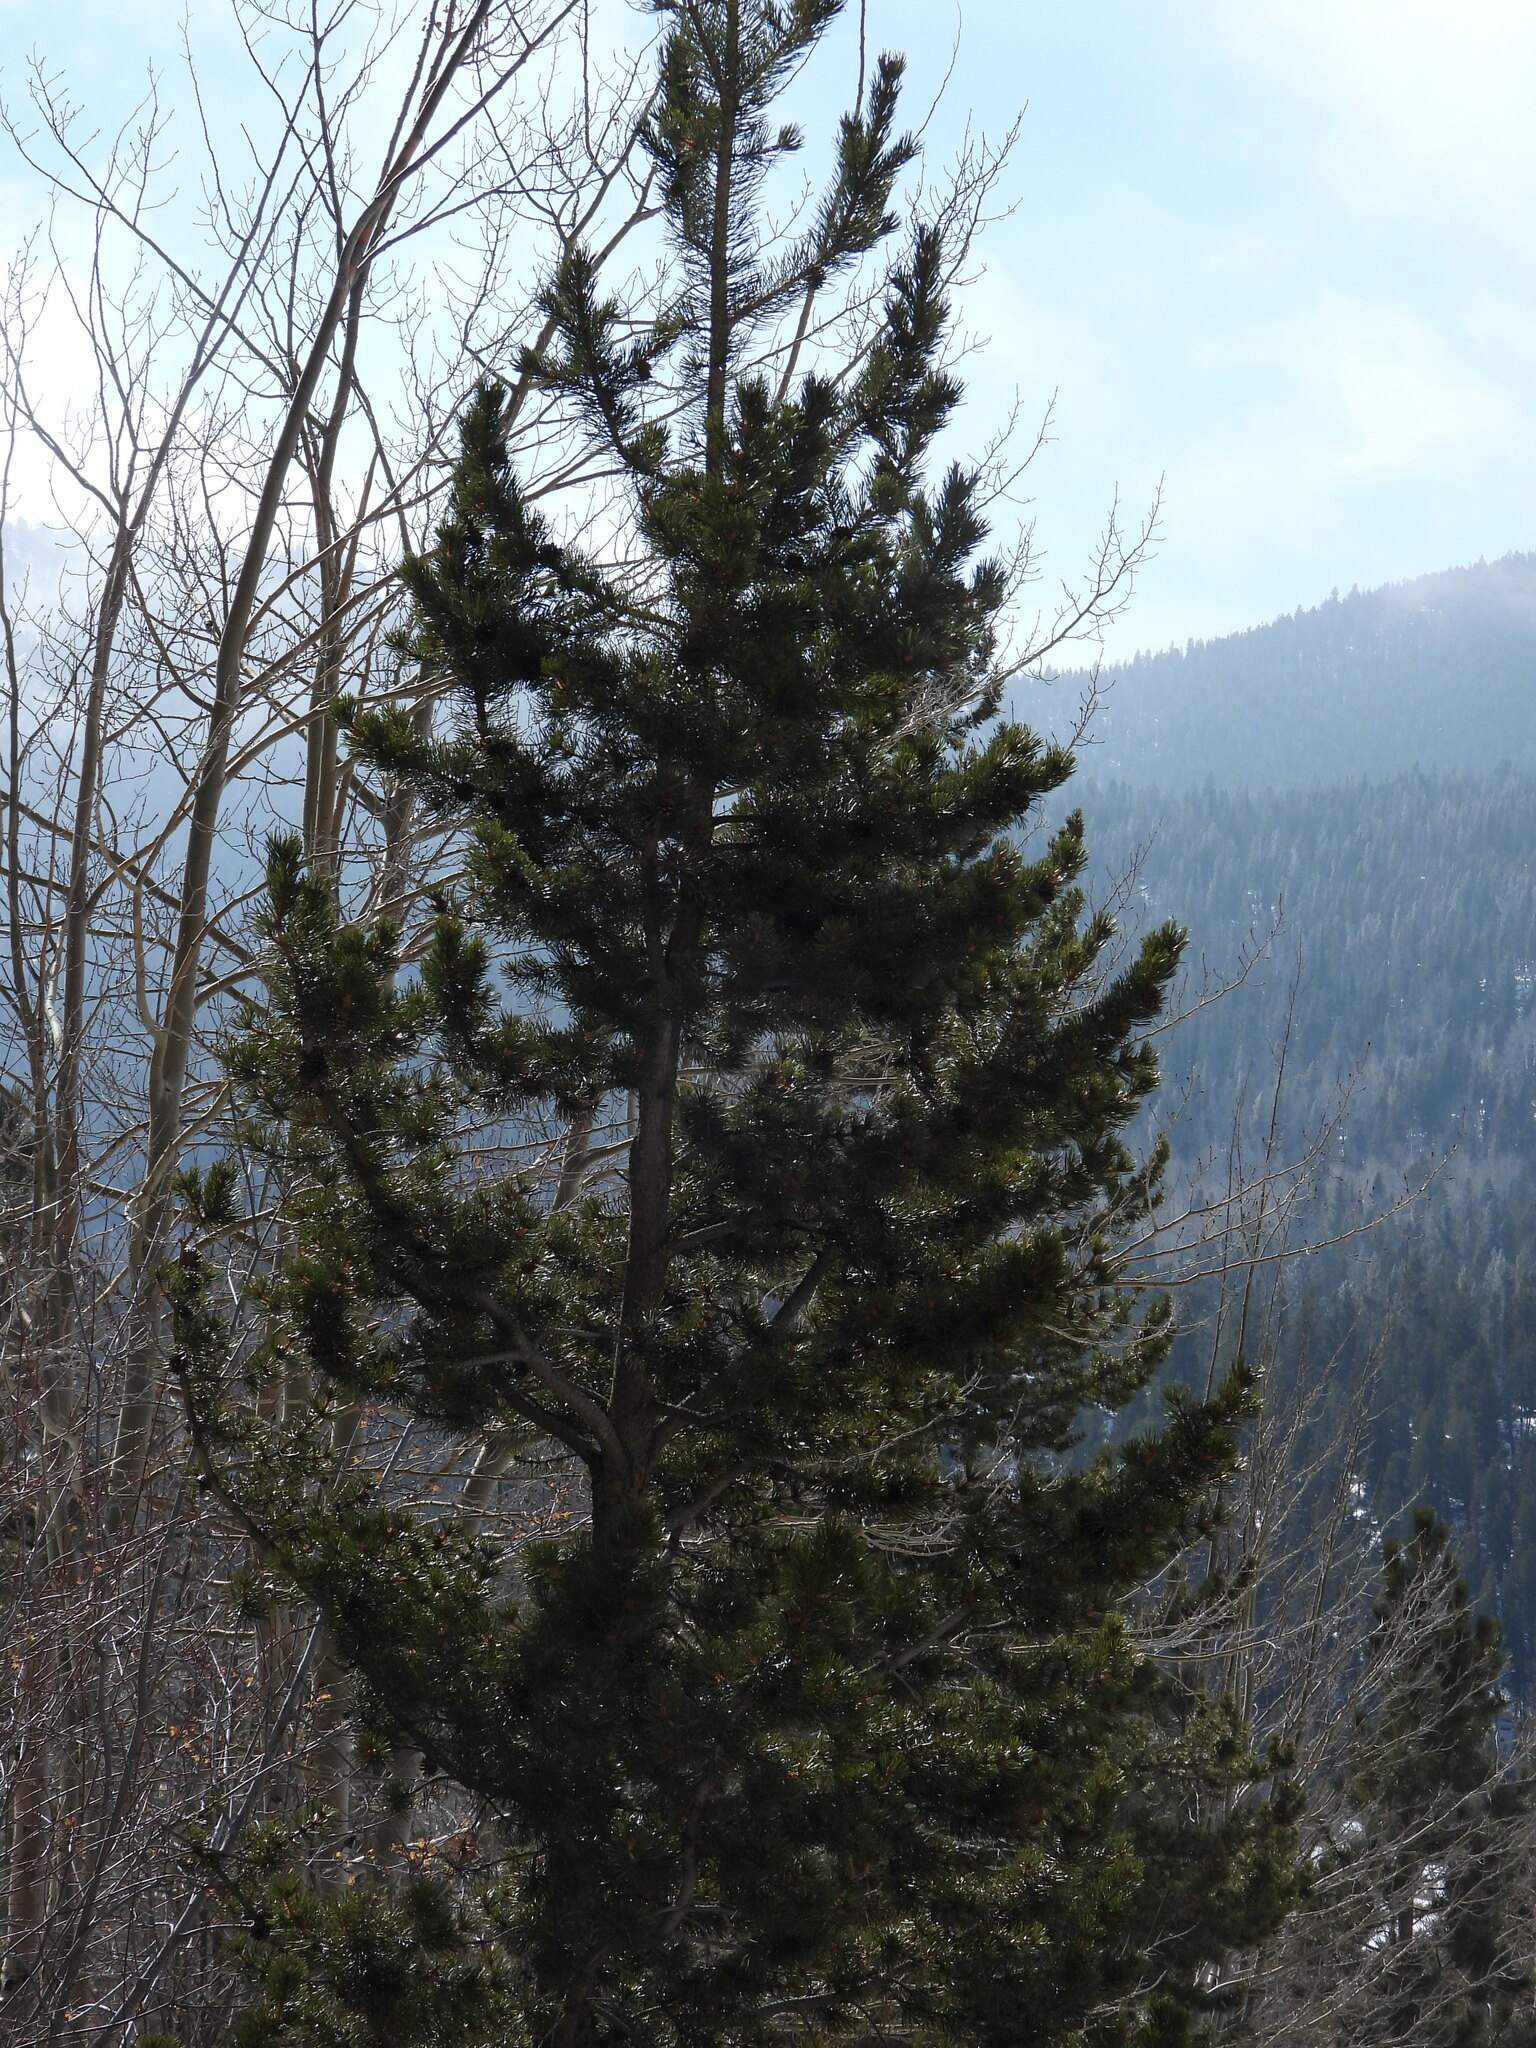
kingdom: Plantae
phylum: Tracheophyta
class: Pinopsida
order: Pinales
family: Pinaceae
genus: Pinus
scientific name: Pinus contorta
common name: Lodgepole pine
